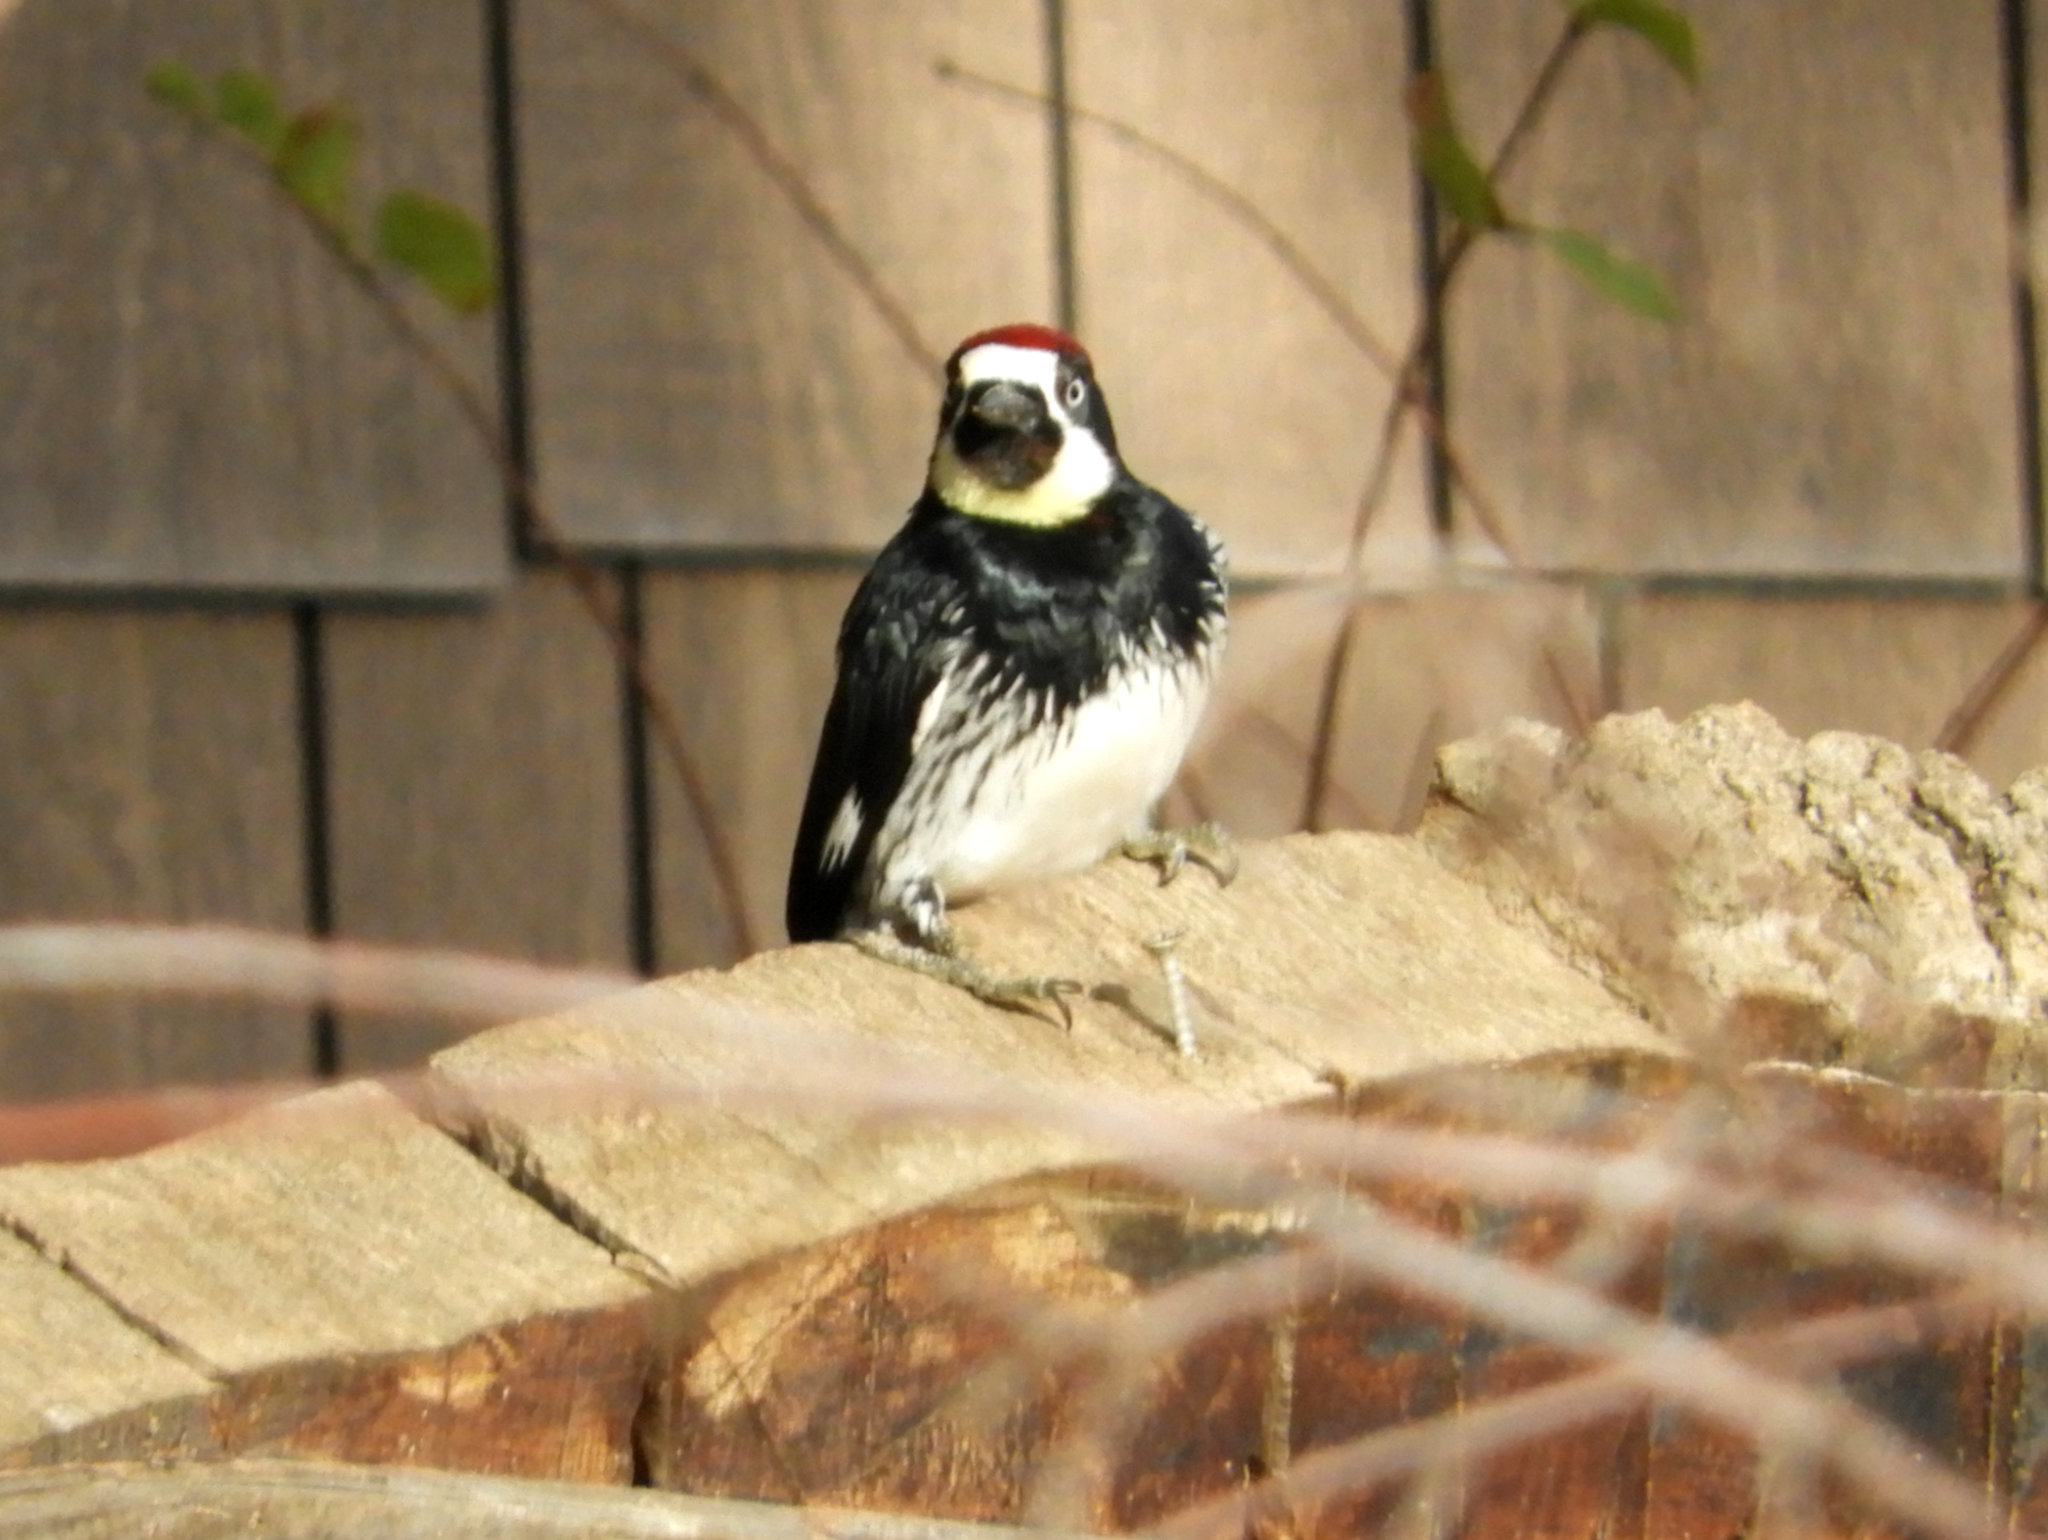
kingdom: Animalia
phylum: Chordata
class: Aves
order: Piciformes
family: Picidae
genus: Melanerpes
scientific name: Melanerpes formicivorus
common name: Acorn woodpecker
